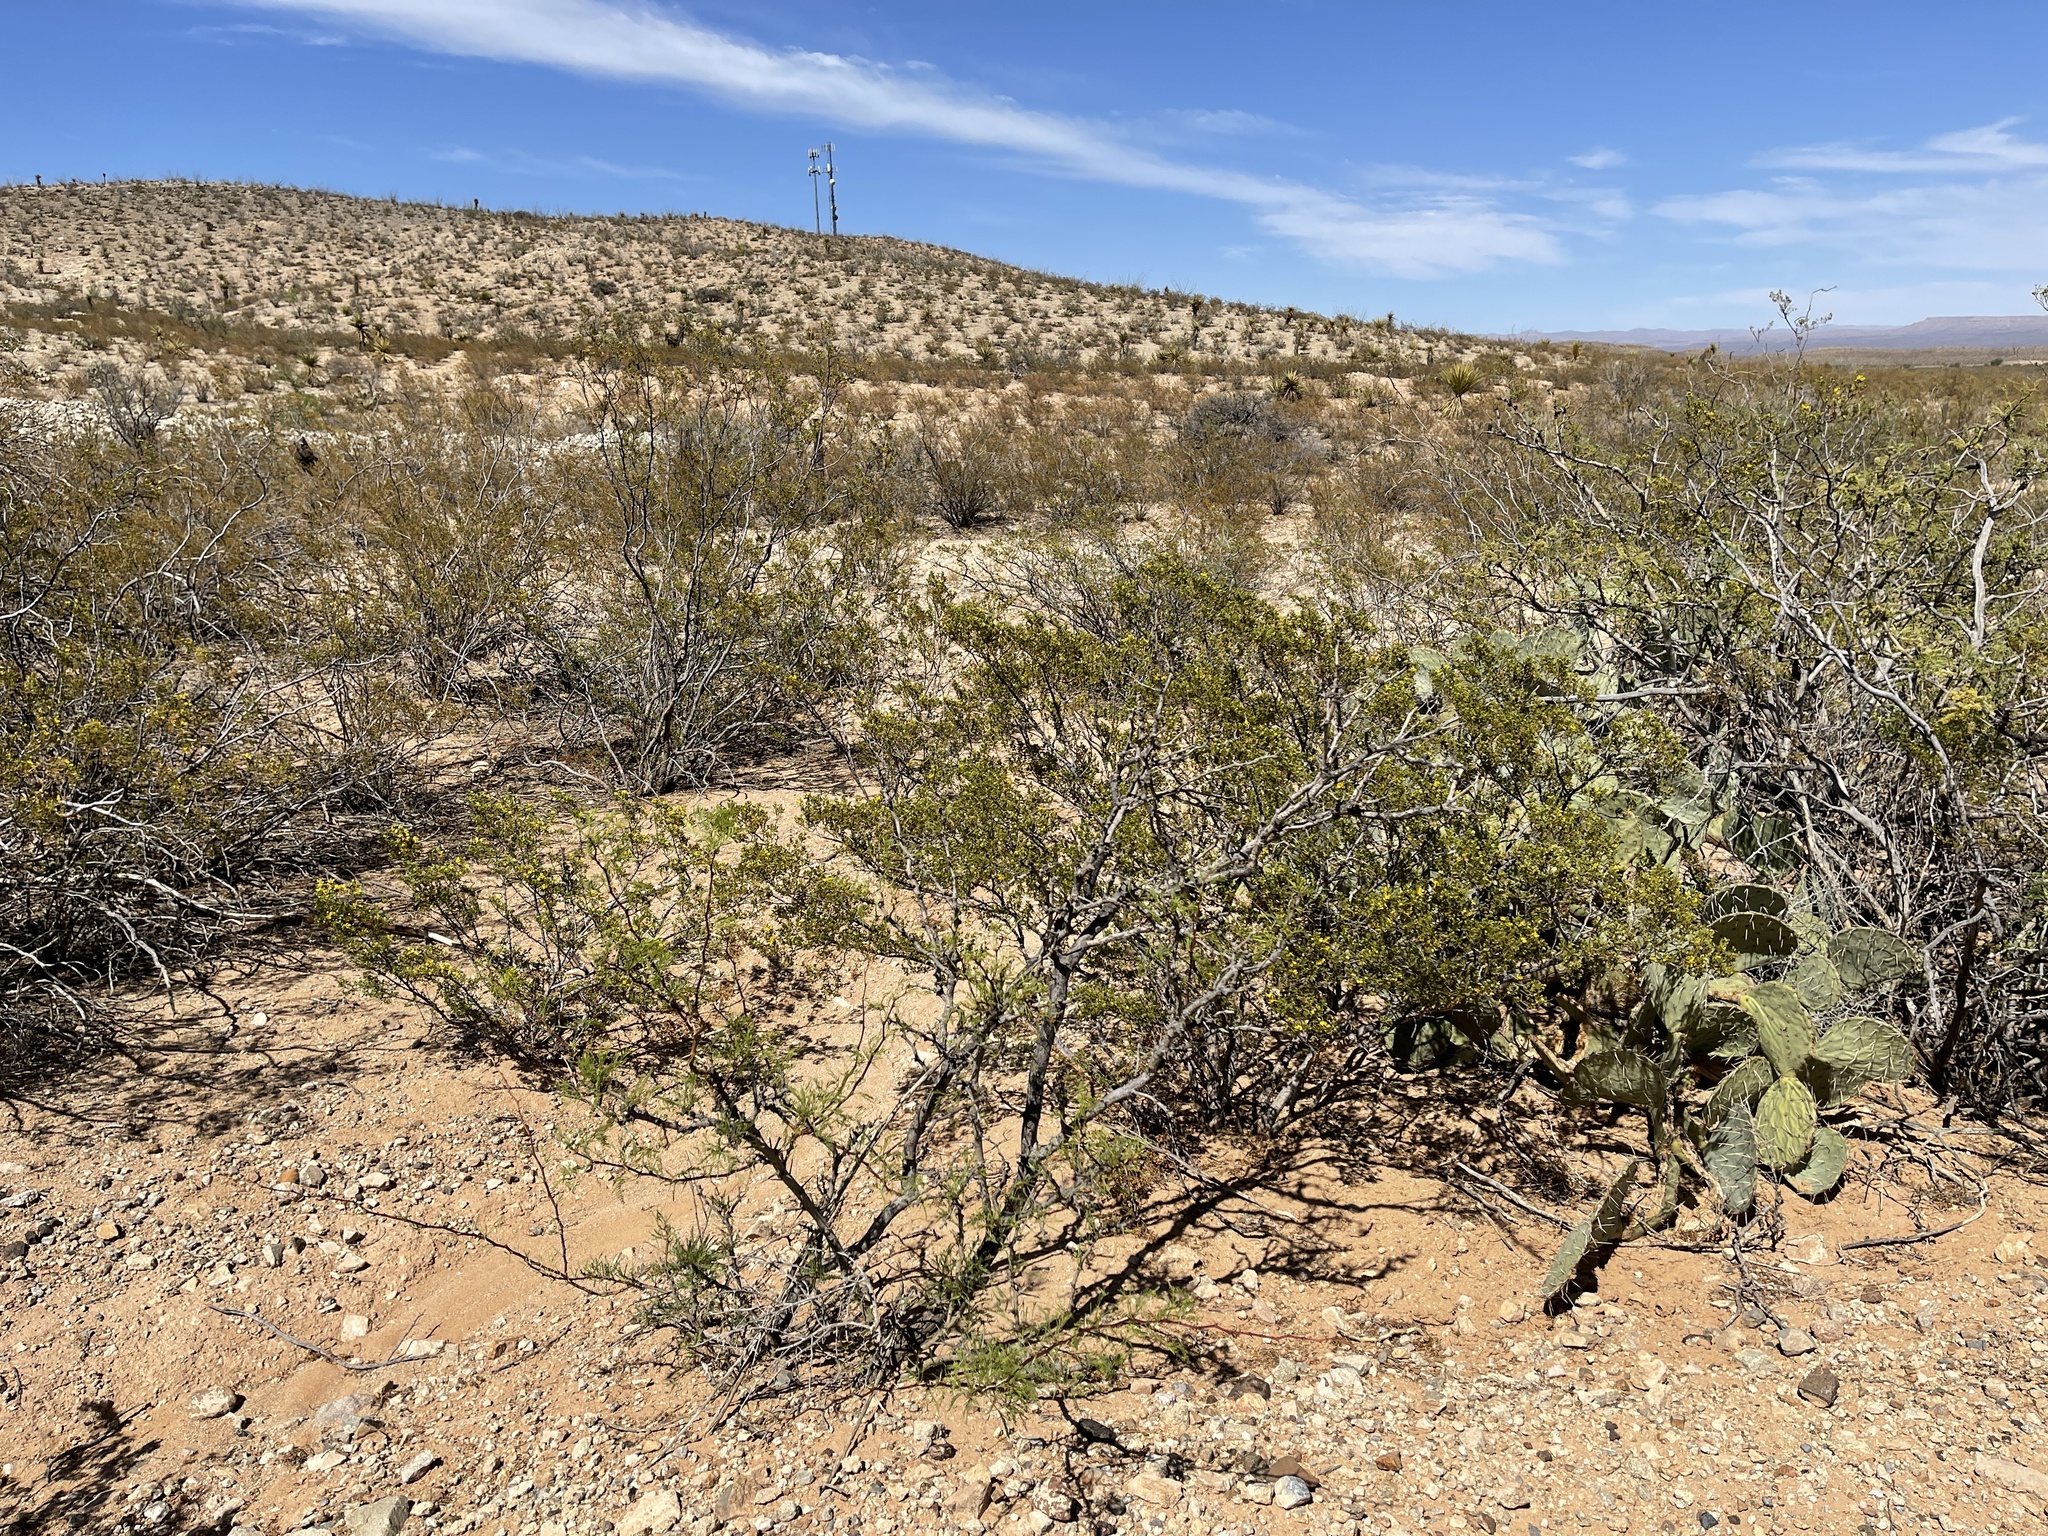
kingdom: Plantae
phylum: Tracheophyta
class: Magnoliopsida
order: Zygophyllales
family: Zygophyllaceae
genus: Larrea
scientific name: Larrea tridentata
